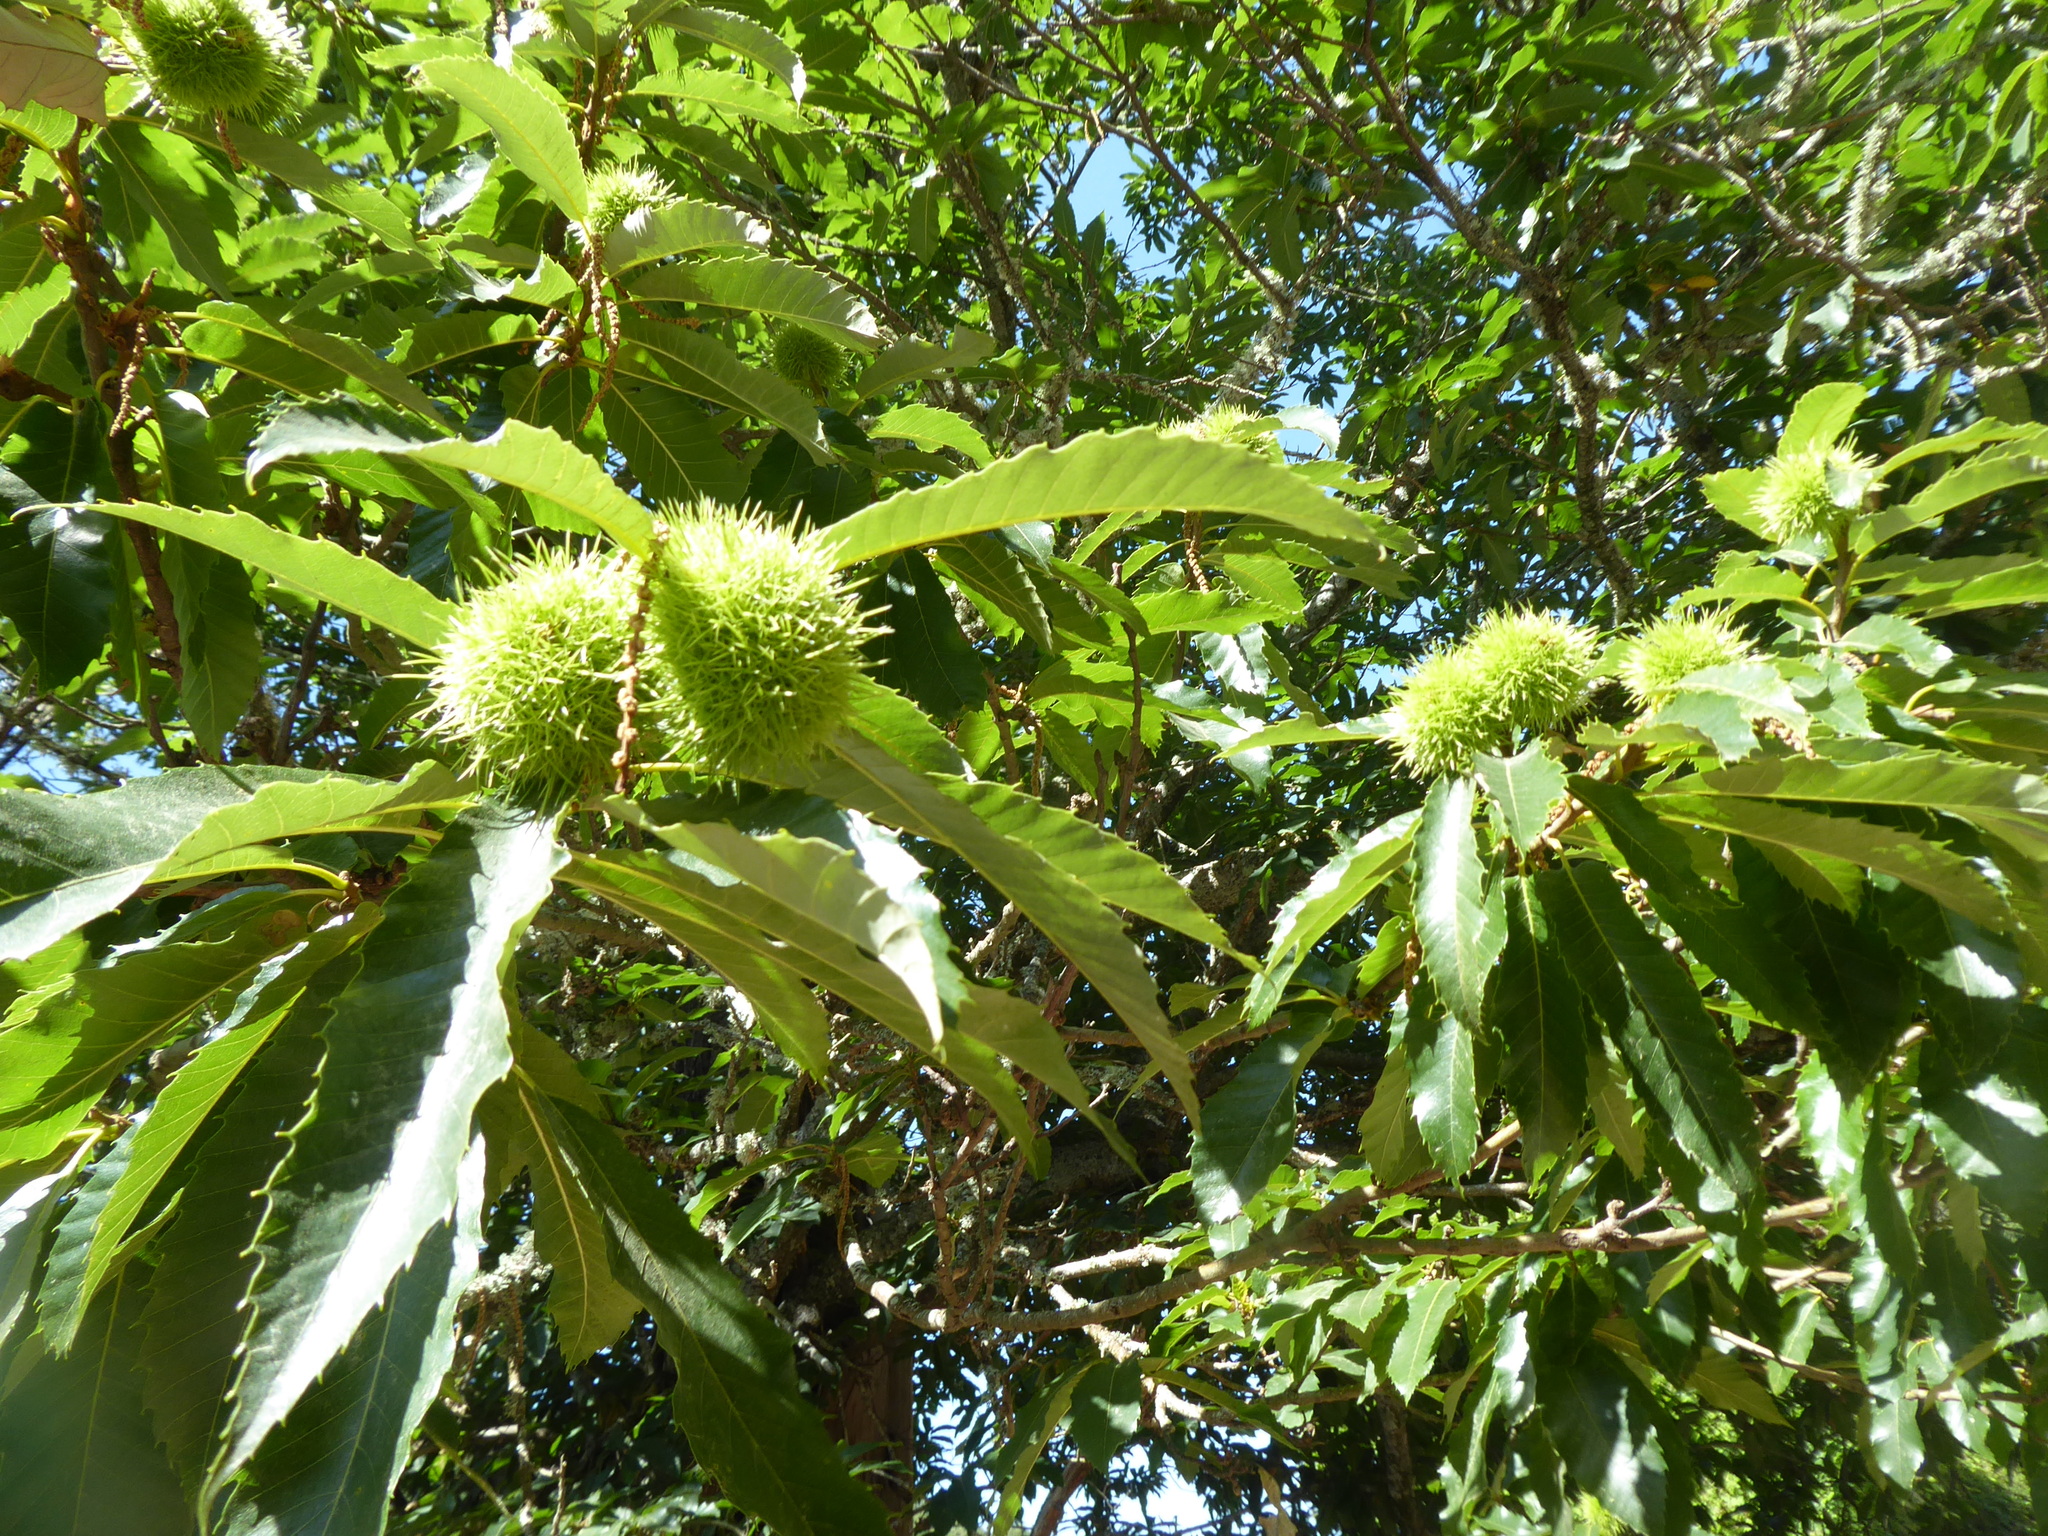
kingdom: Plantae
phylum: Tracheophyta
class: Magnoliopsida
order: Fagales
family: Fagaceae
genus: Castanea
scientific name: Castanea sativa
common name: Sweet chestnut
